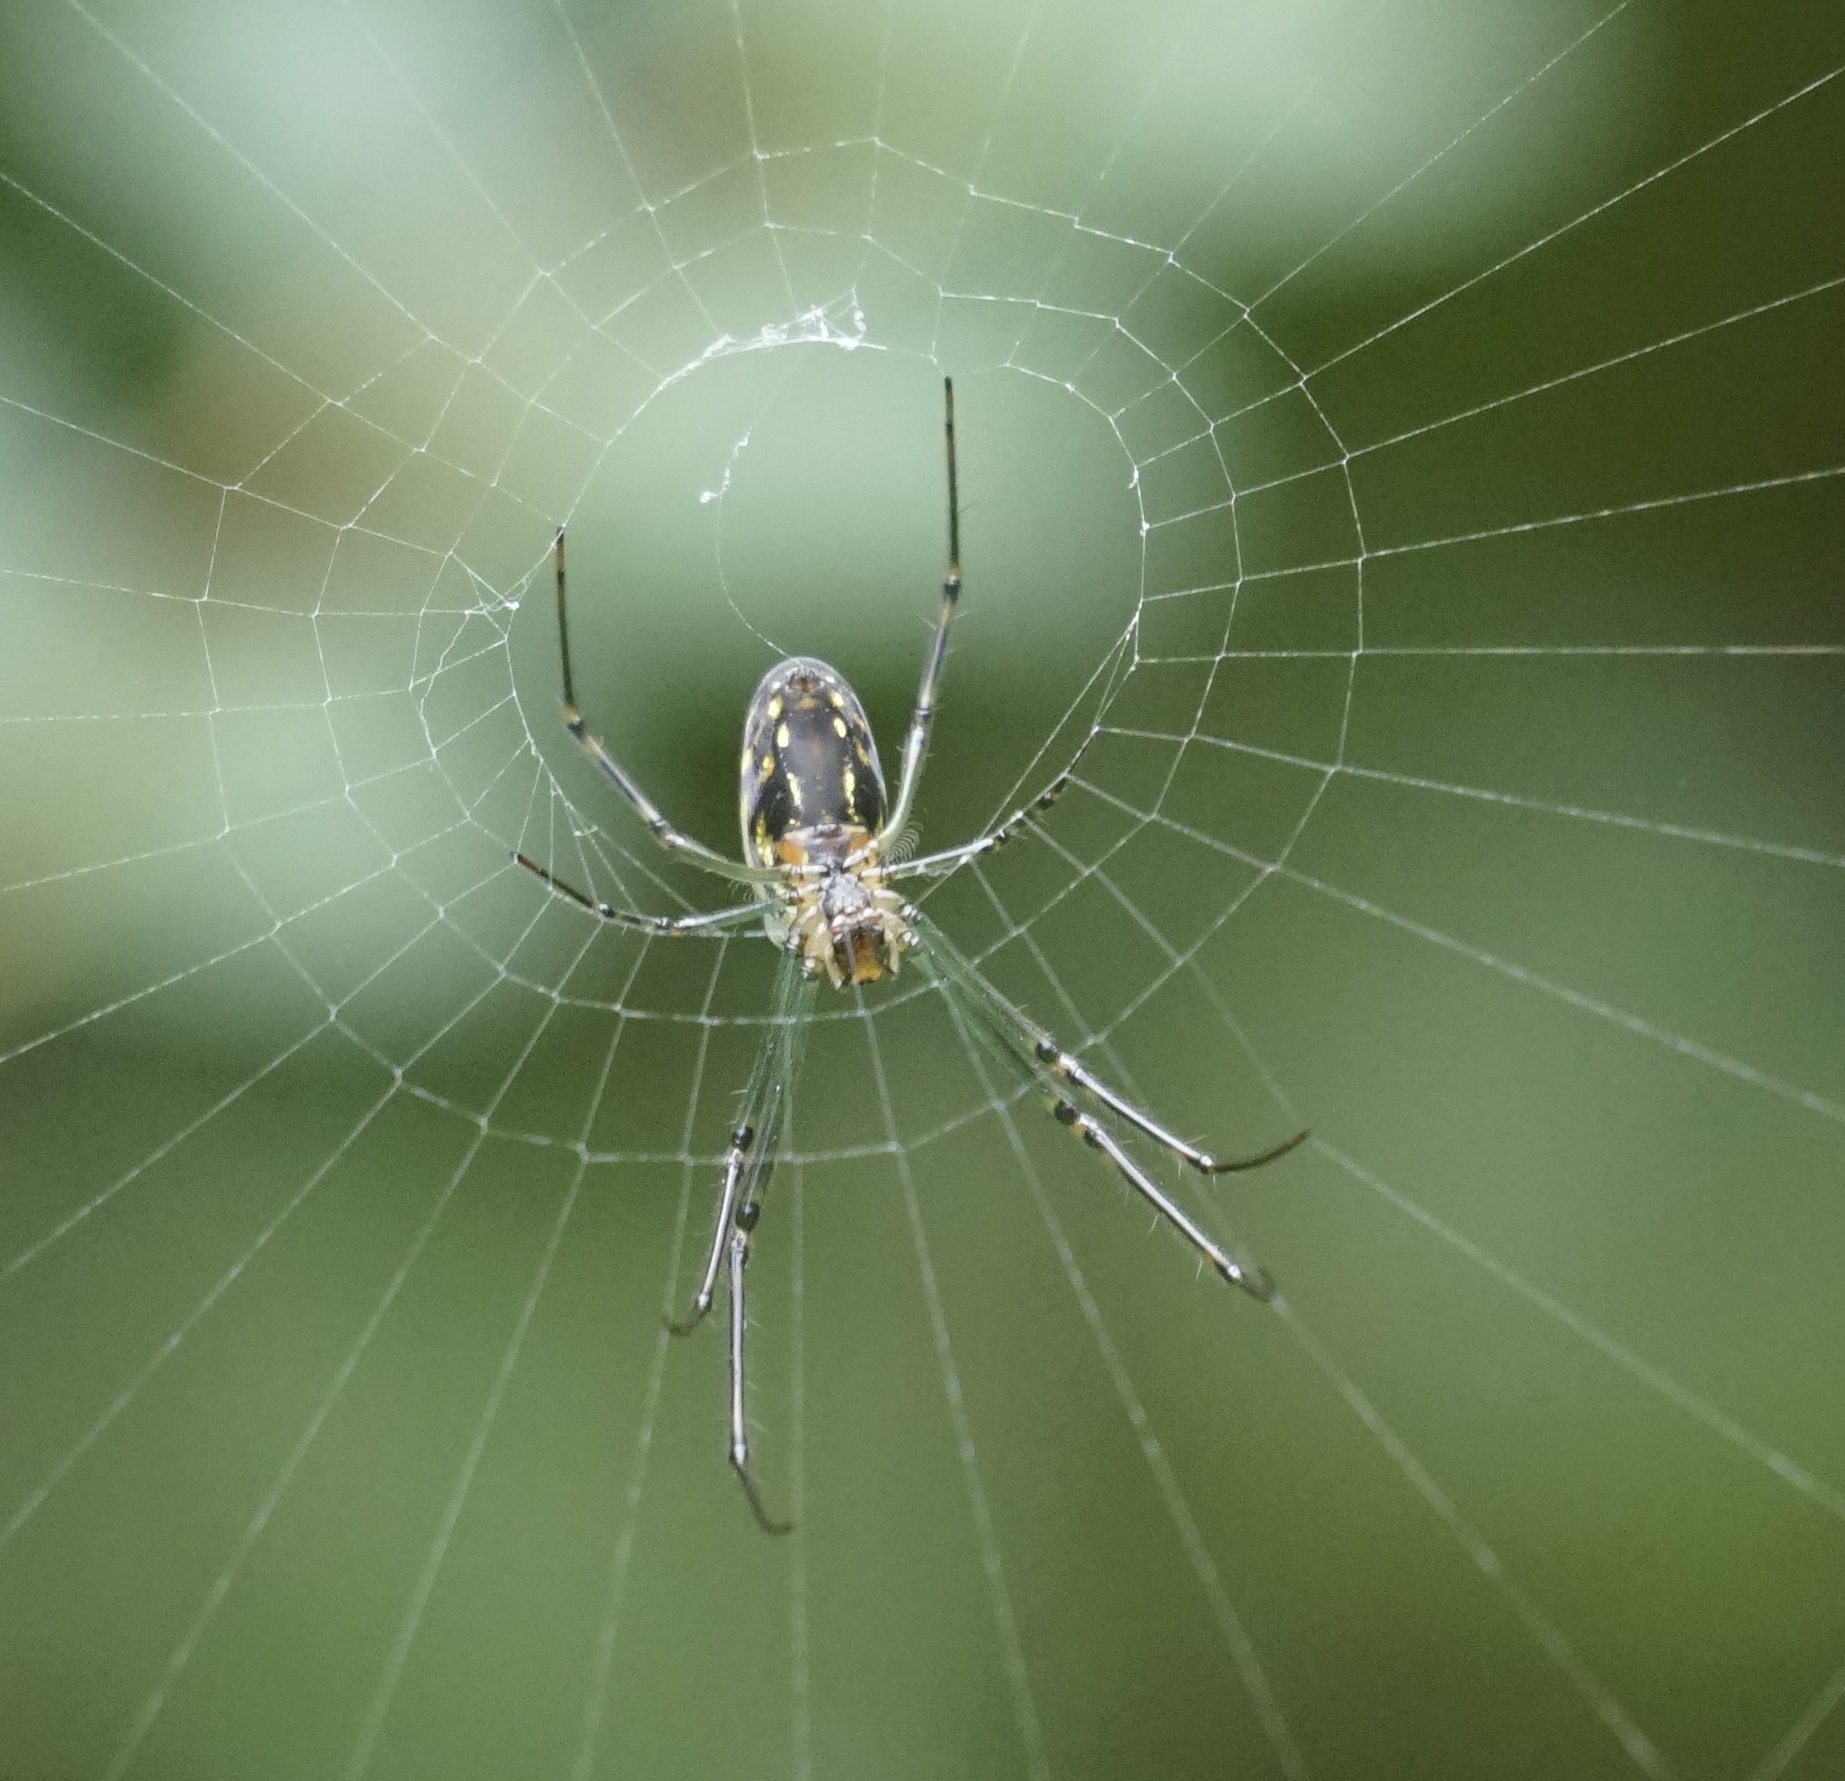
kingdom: Animalia
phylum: Arthropoda
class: Arachnida
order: Araneae
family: Tetragnathidae
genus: Leucauge
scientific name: Leucauge dromedaria
